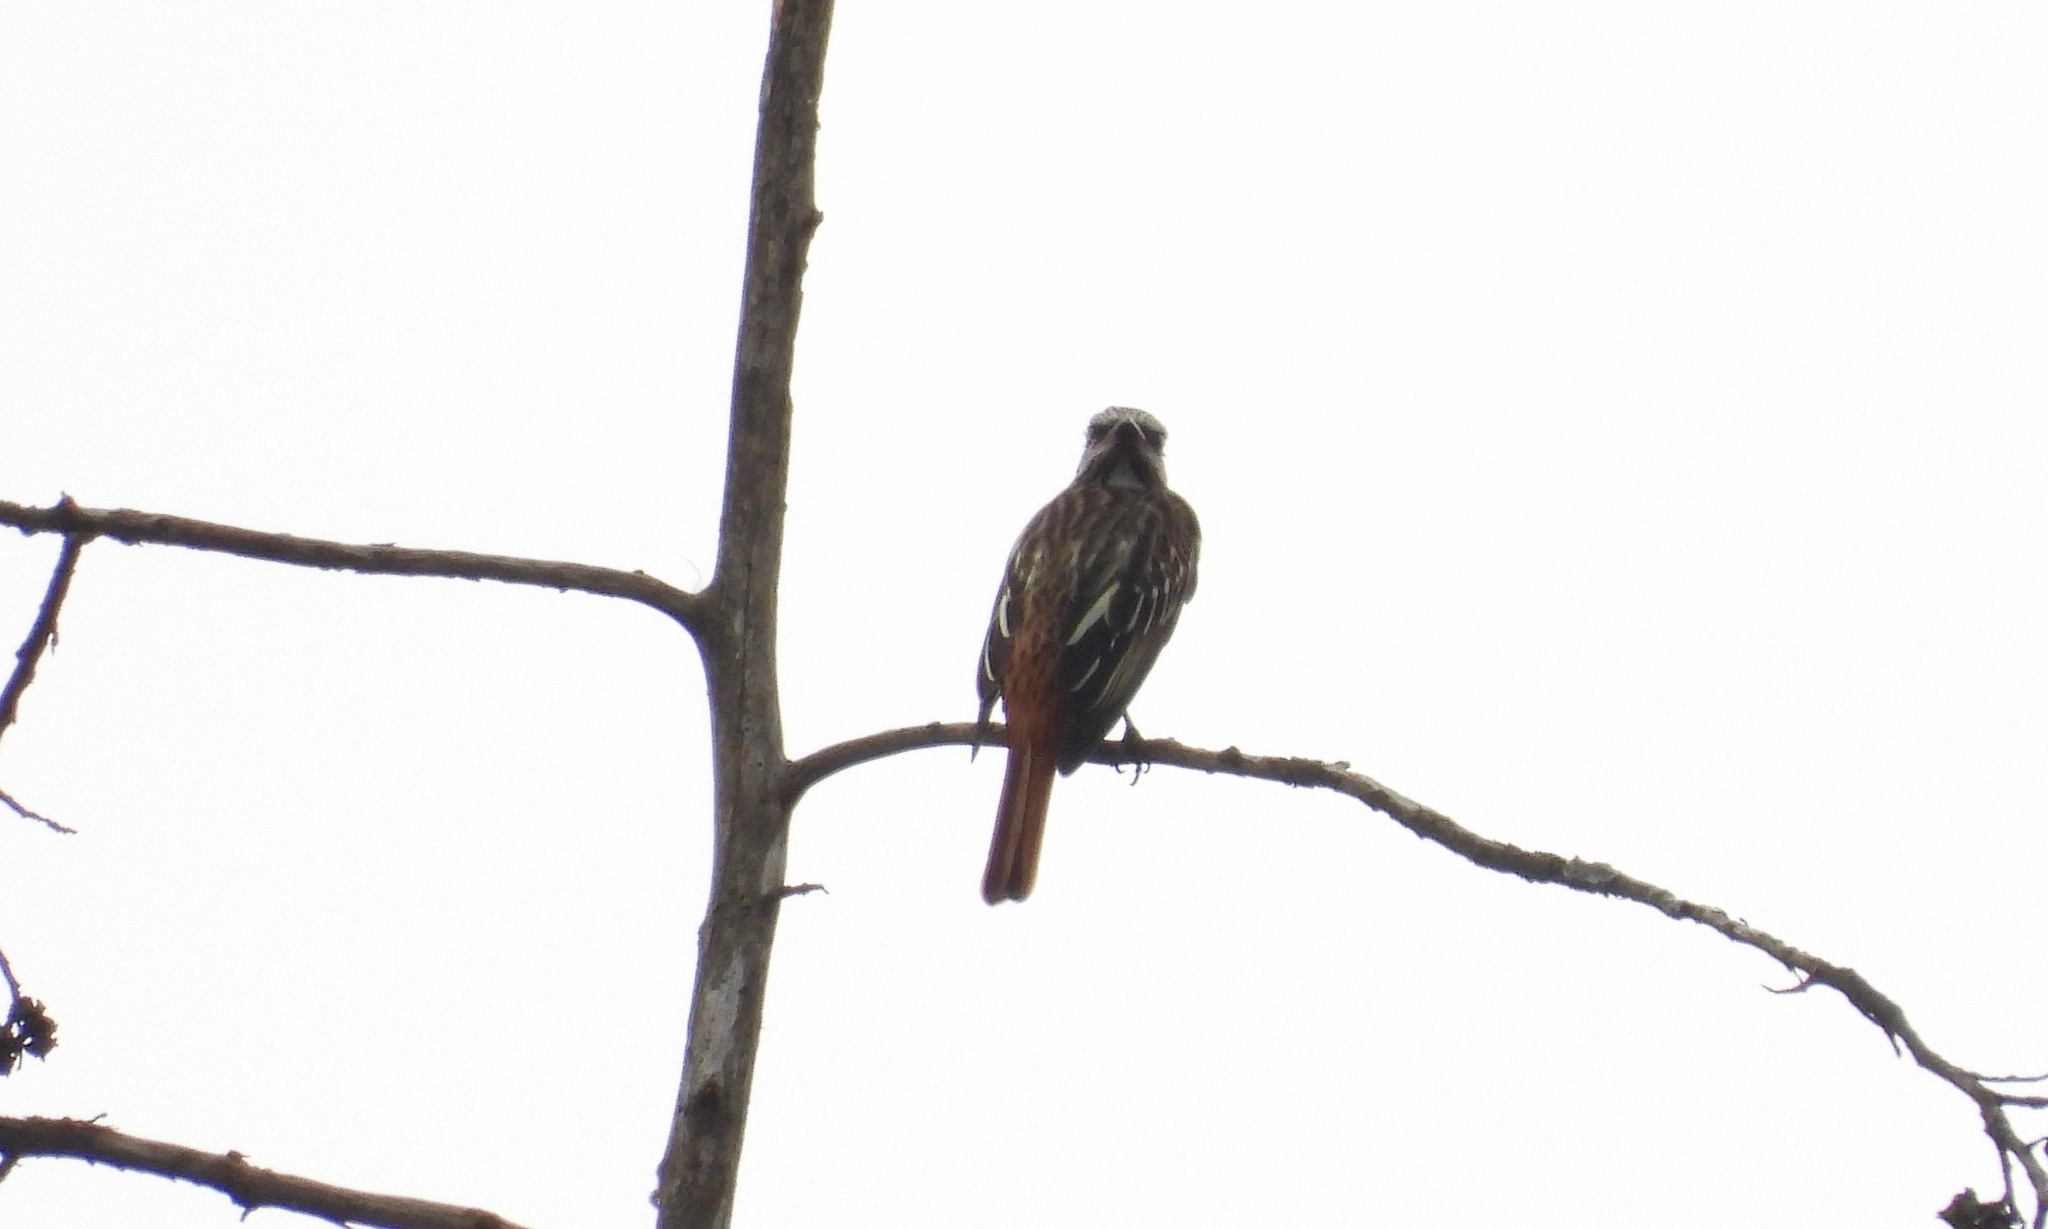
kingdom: Animalia
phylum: Chordata
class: Aves
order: Passeriformes
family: Tyrannidae
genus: Myiodynastes
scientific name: Myiodynastes luteiventris
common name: Sulphur-bellied flycatcher
